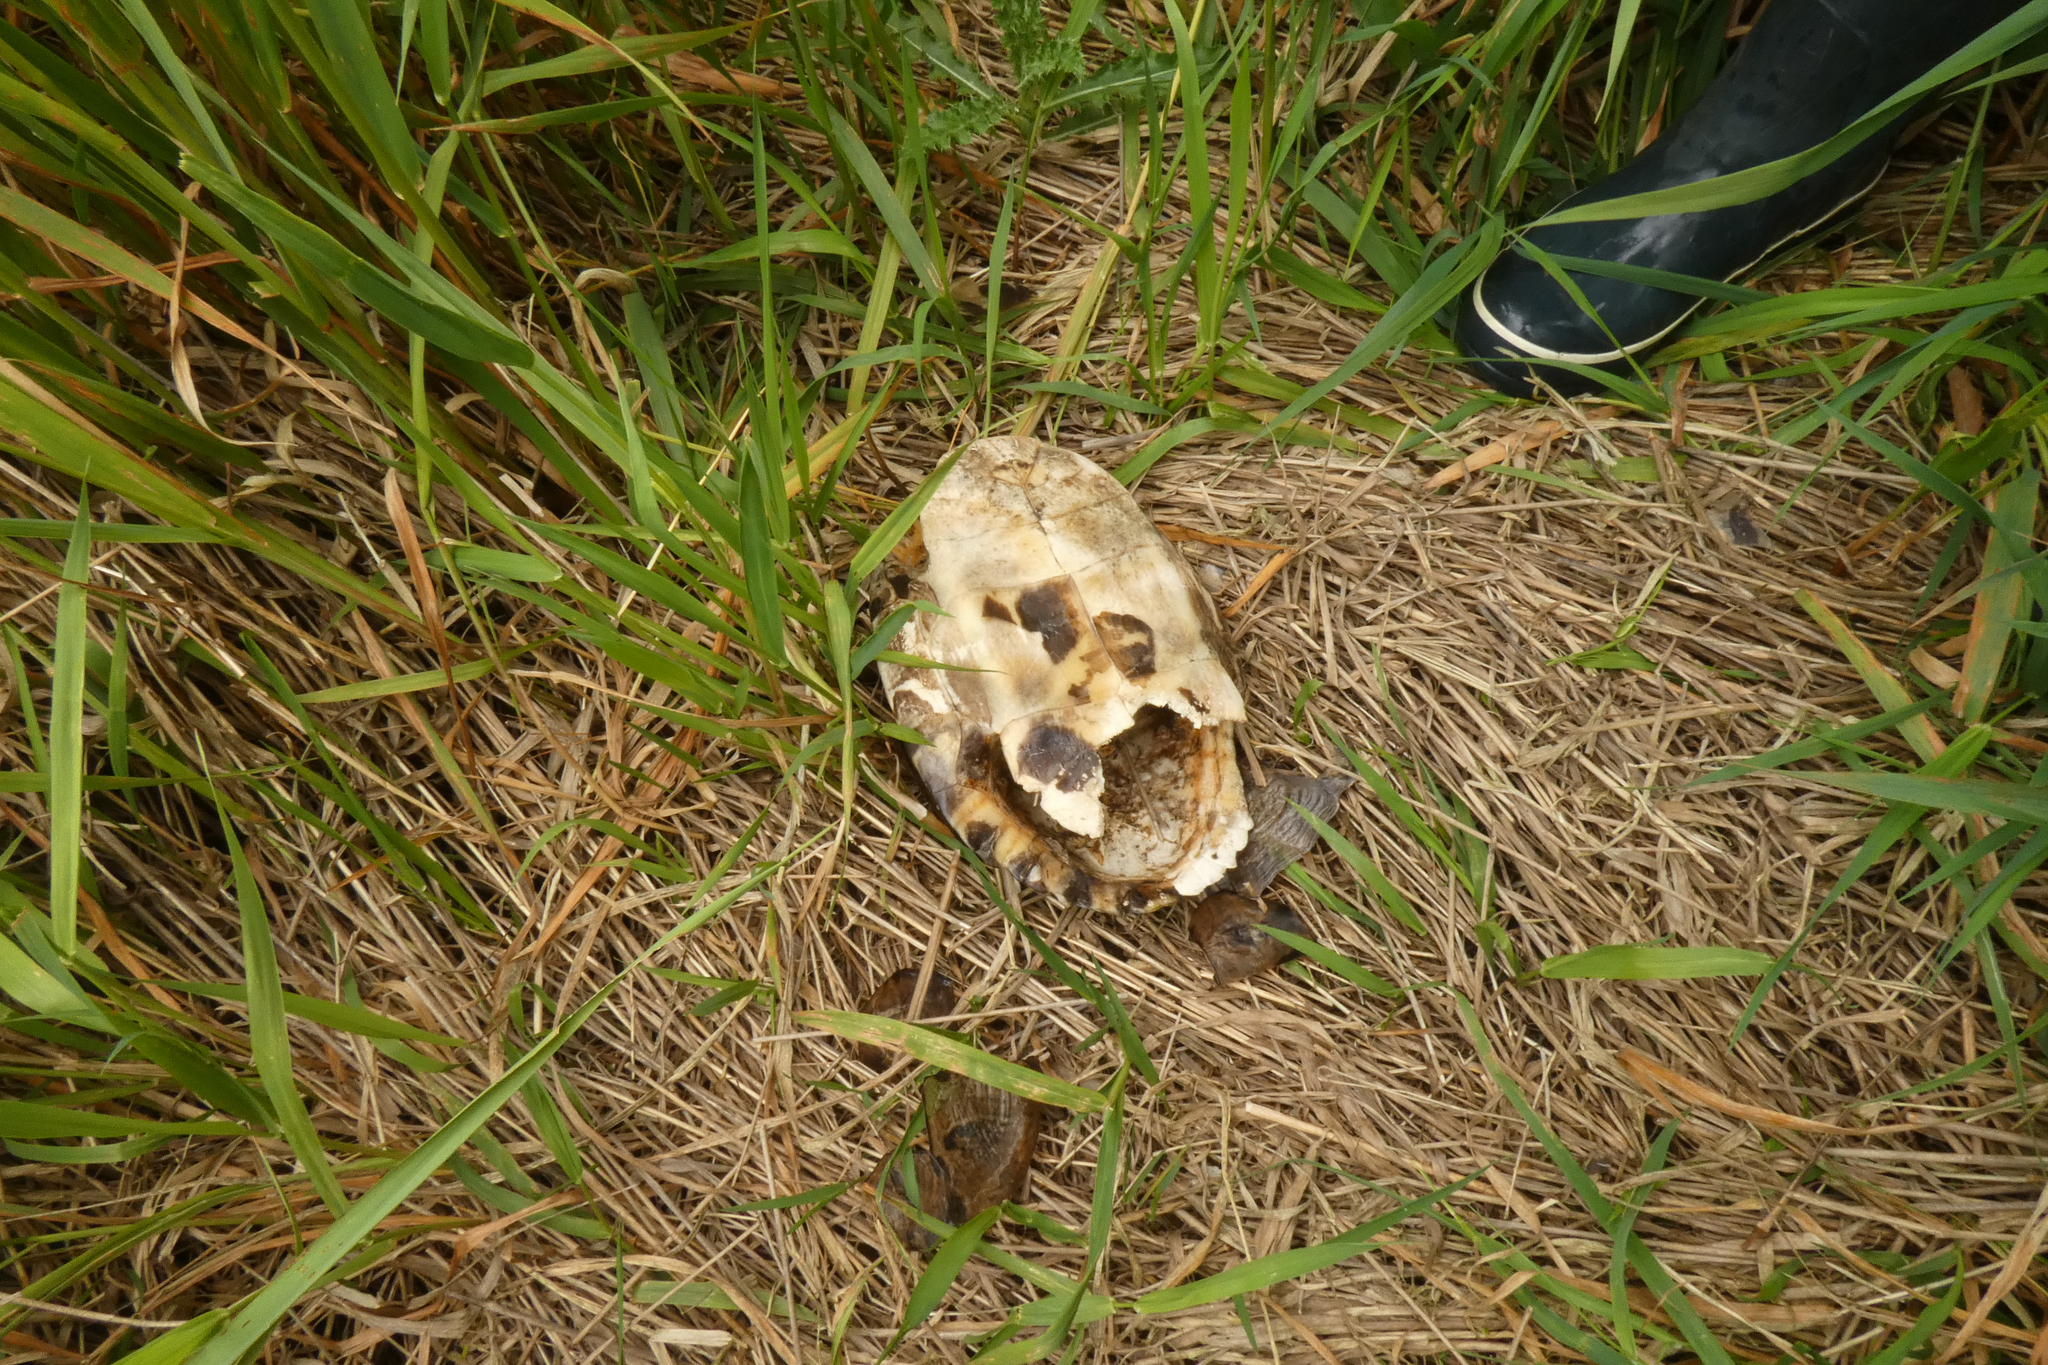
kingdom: Animalia
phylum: Chordata
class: Testudines
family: Emydidae
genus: Trachemys
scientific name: Trachemys scripta
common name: Slider
